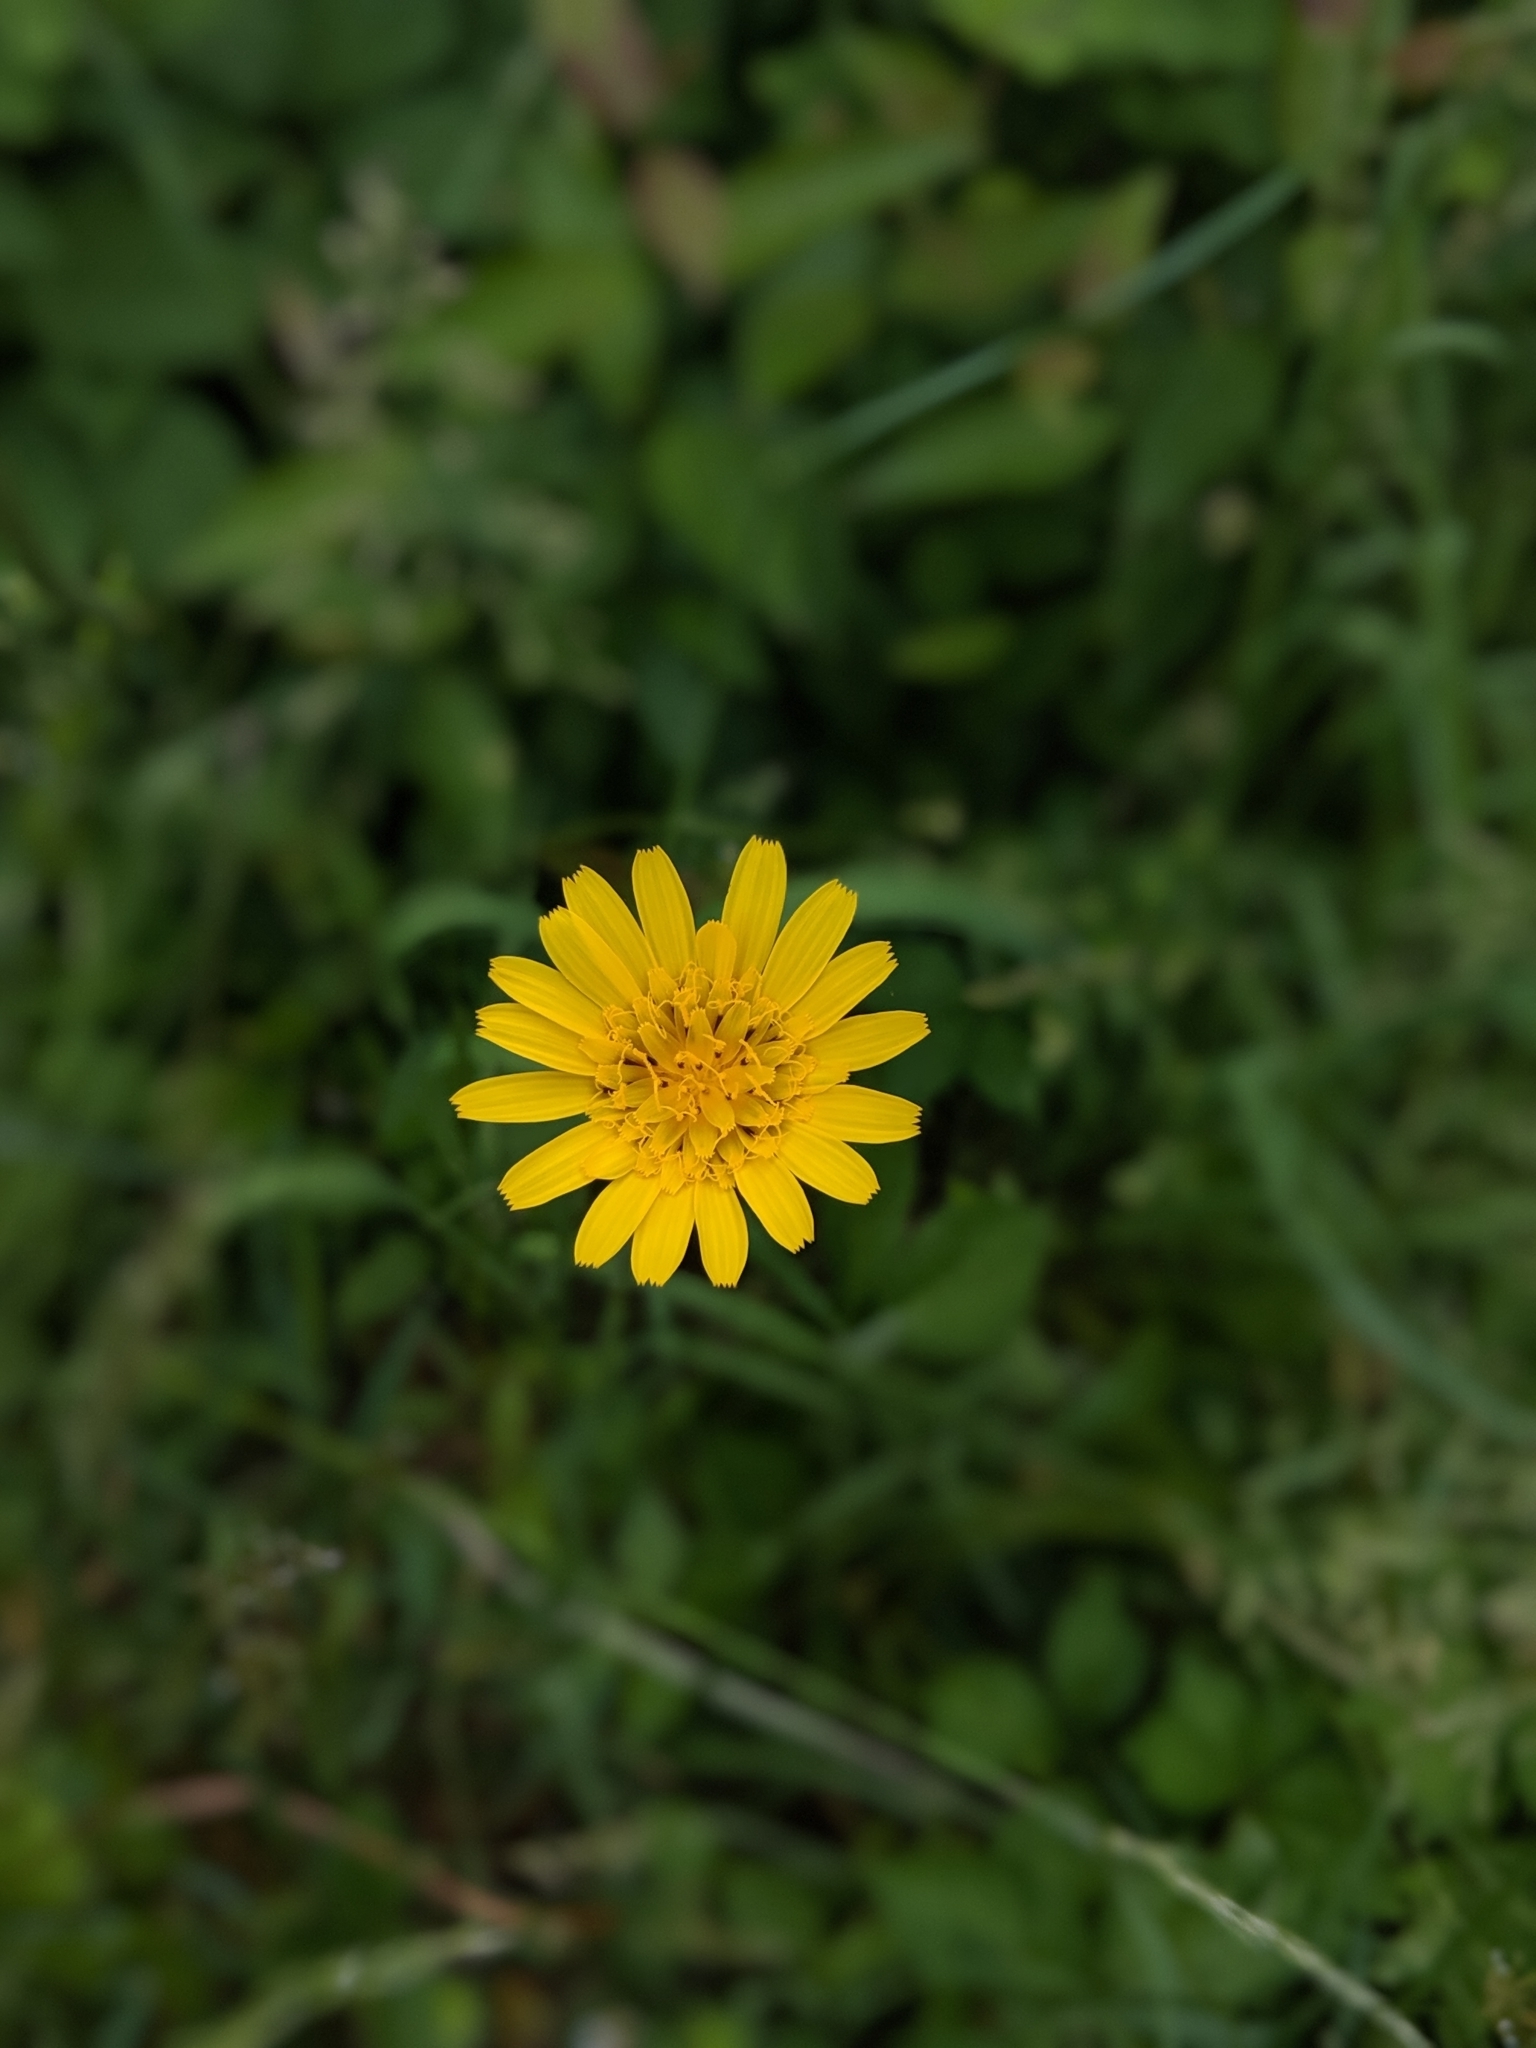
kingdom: Plantae
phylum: Tracheophyta
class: Magnoliopsida
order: Asterales
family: Asteraceae
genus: Tragopogon
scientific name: Tragopogon pratensis
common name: Goat's-beard
